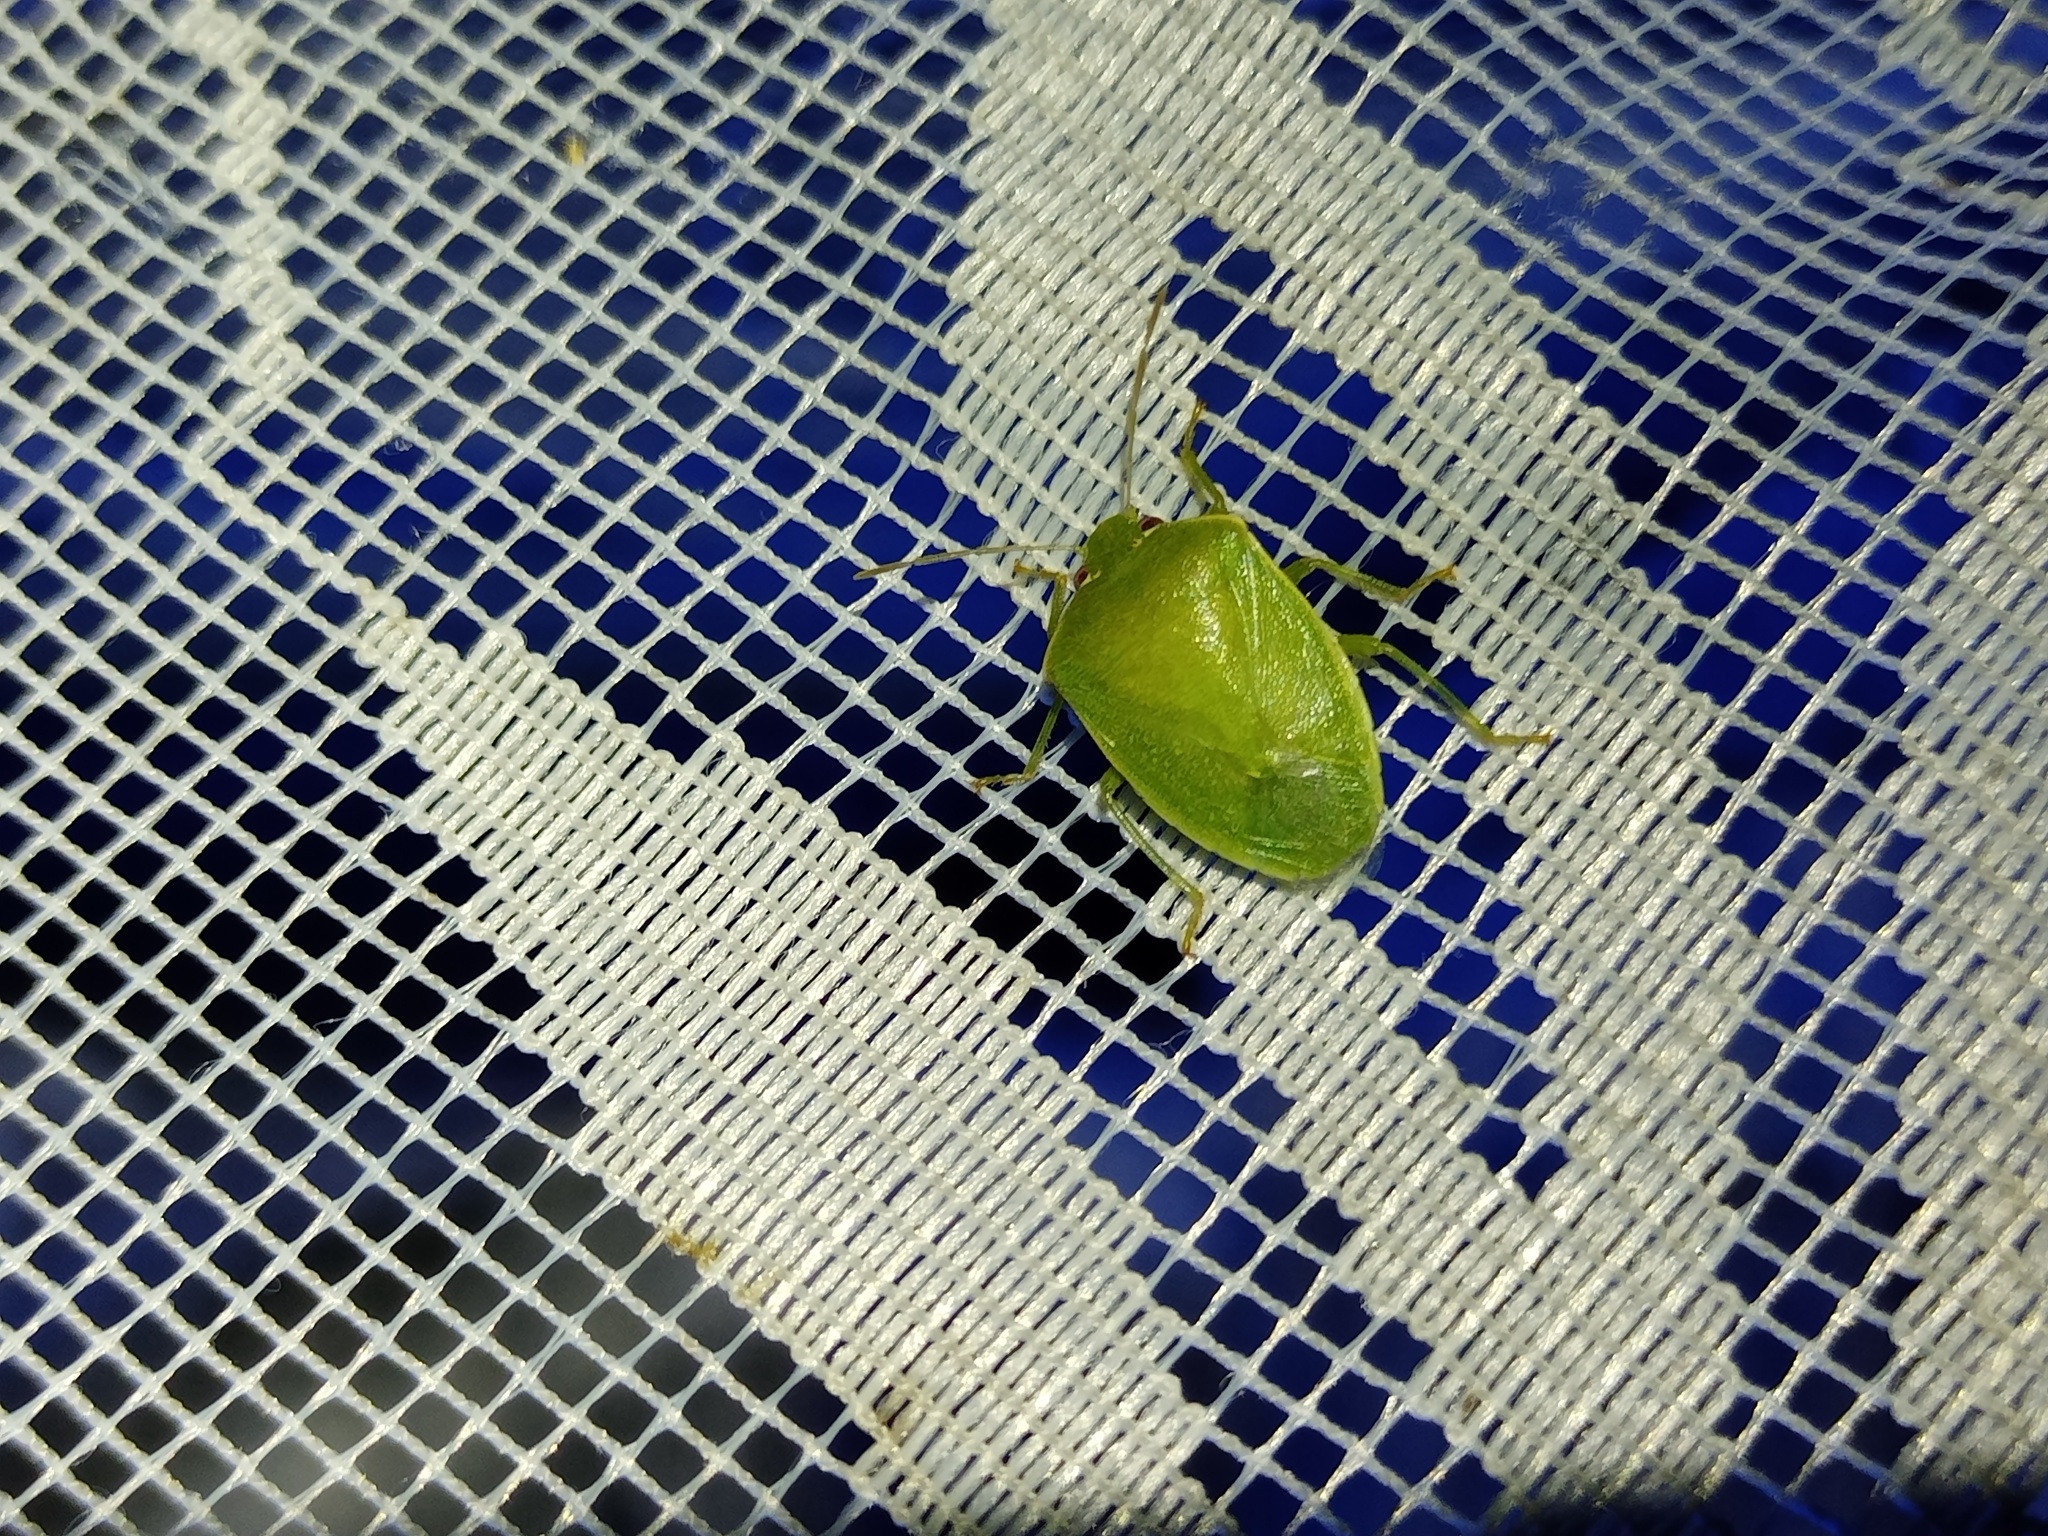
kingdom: Animalia
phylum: Arthropoda
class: Insecta
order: Hemiptera
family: Pentatomidae
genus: Acrosternum
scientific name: Acrosternum millierei
